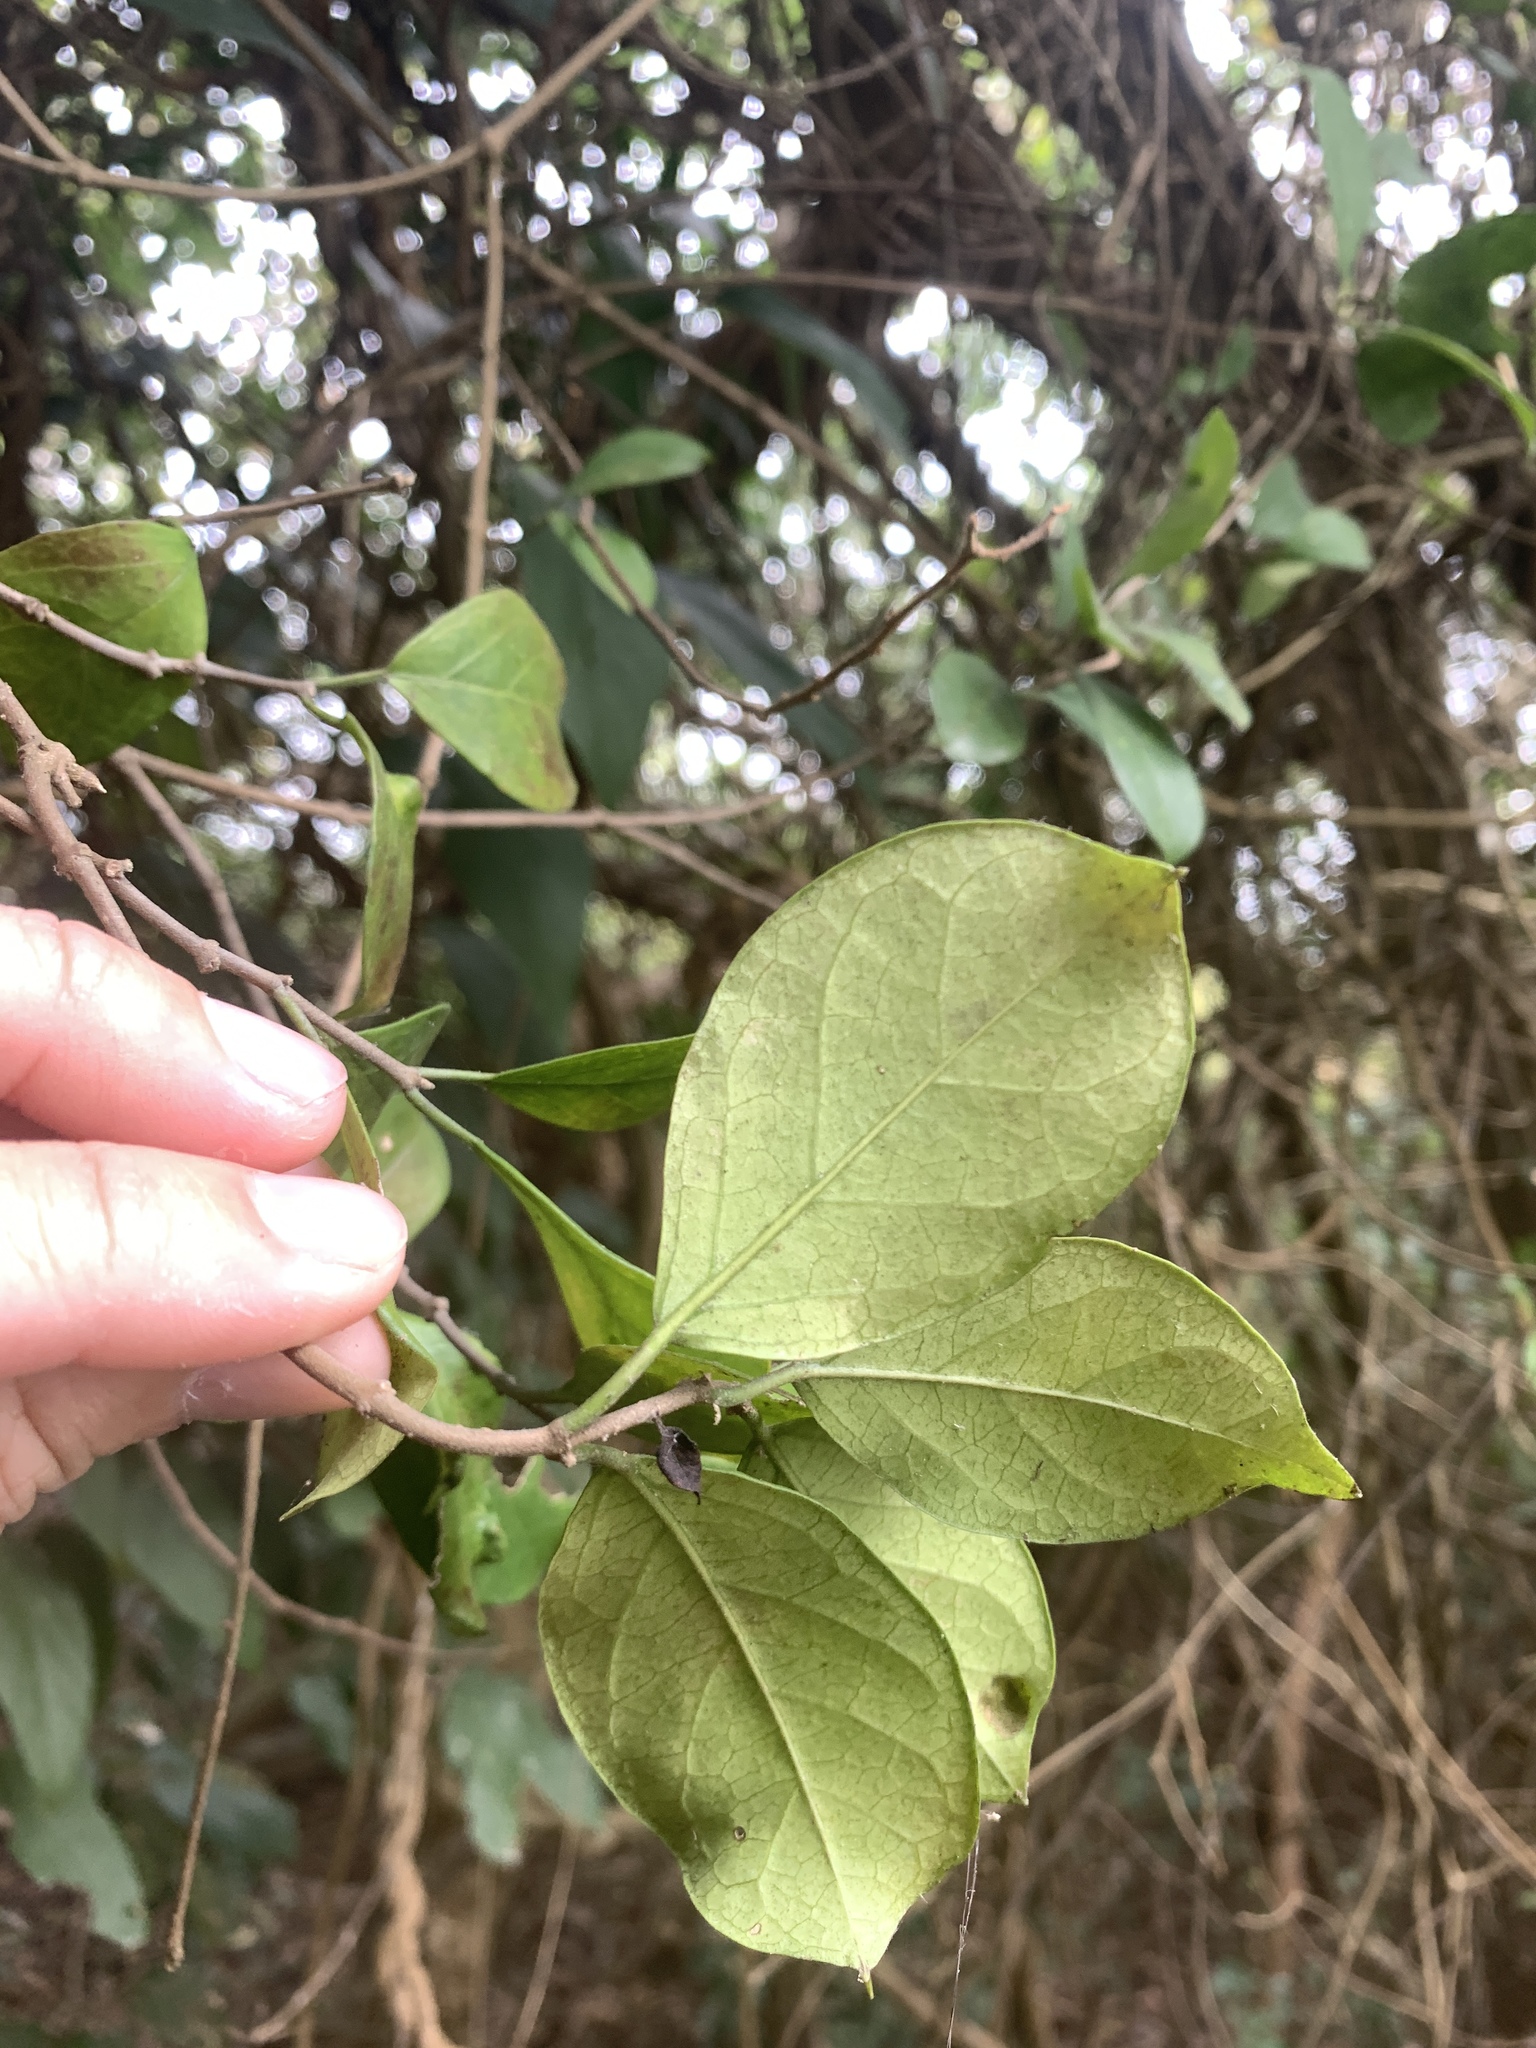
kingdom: Plantae
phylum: Tracheophyta
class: Magnoliopsida
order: Gentianales
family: Apocynaceae
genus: Gymnema
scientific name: Gymnema sylvestre
